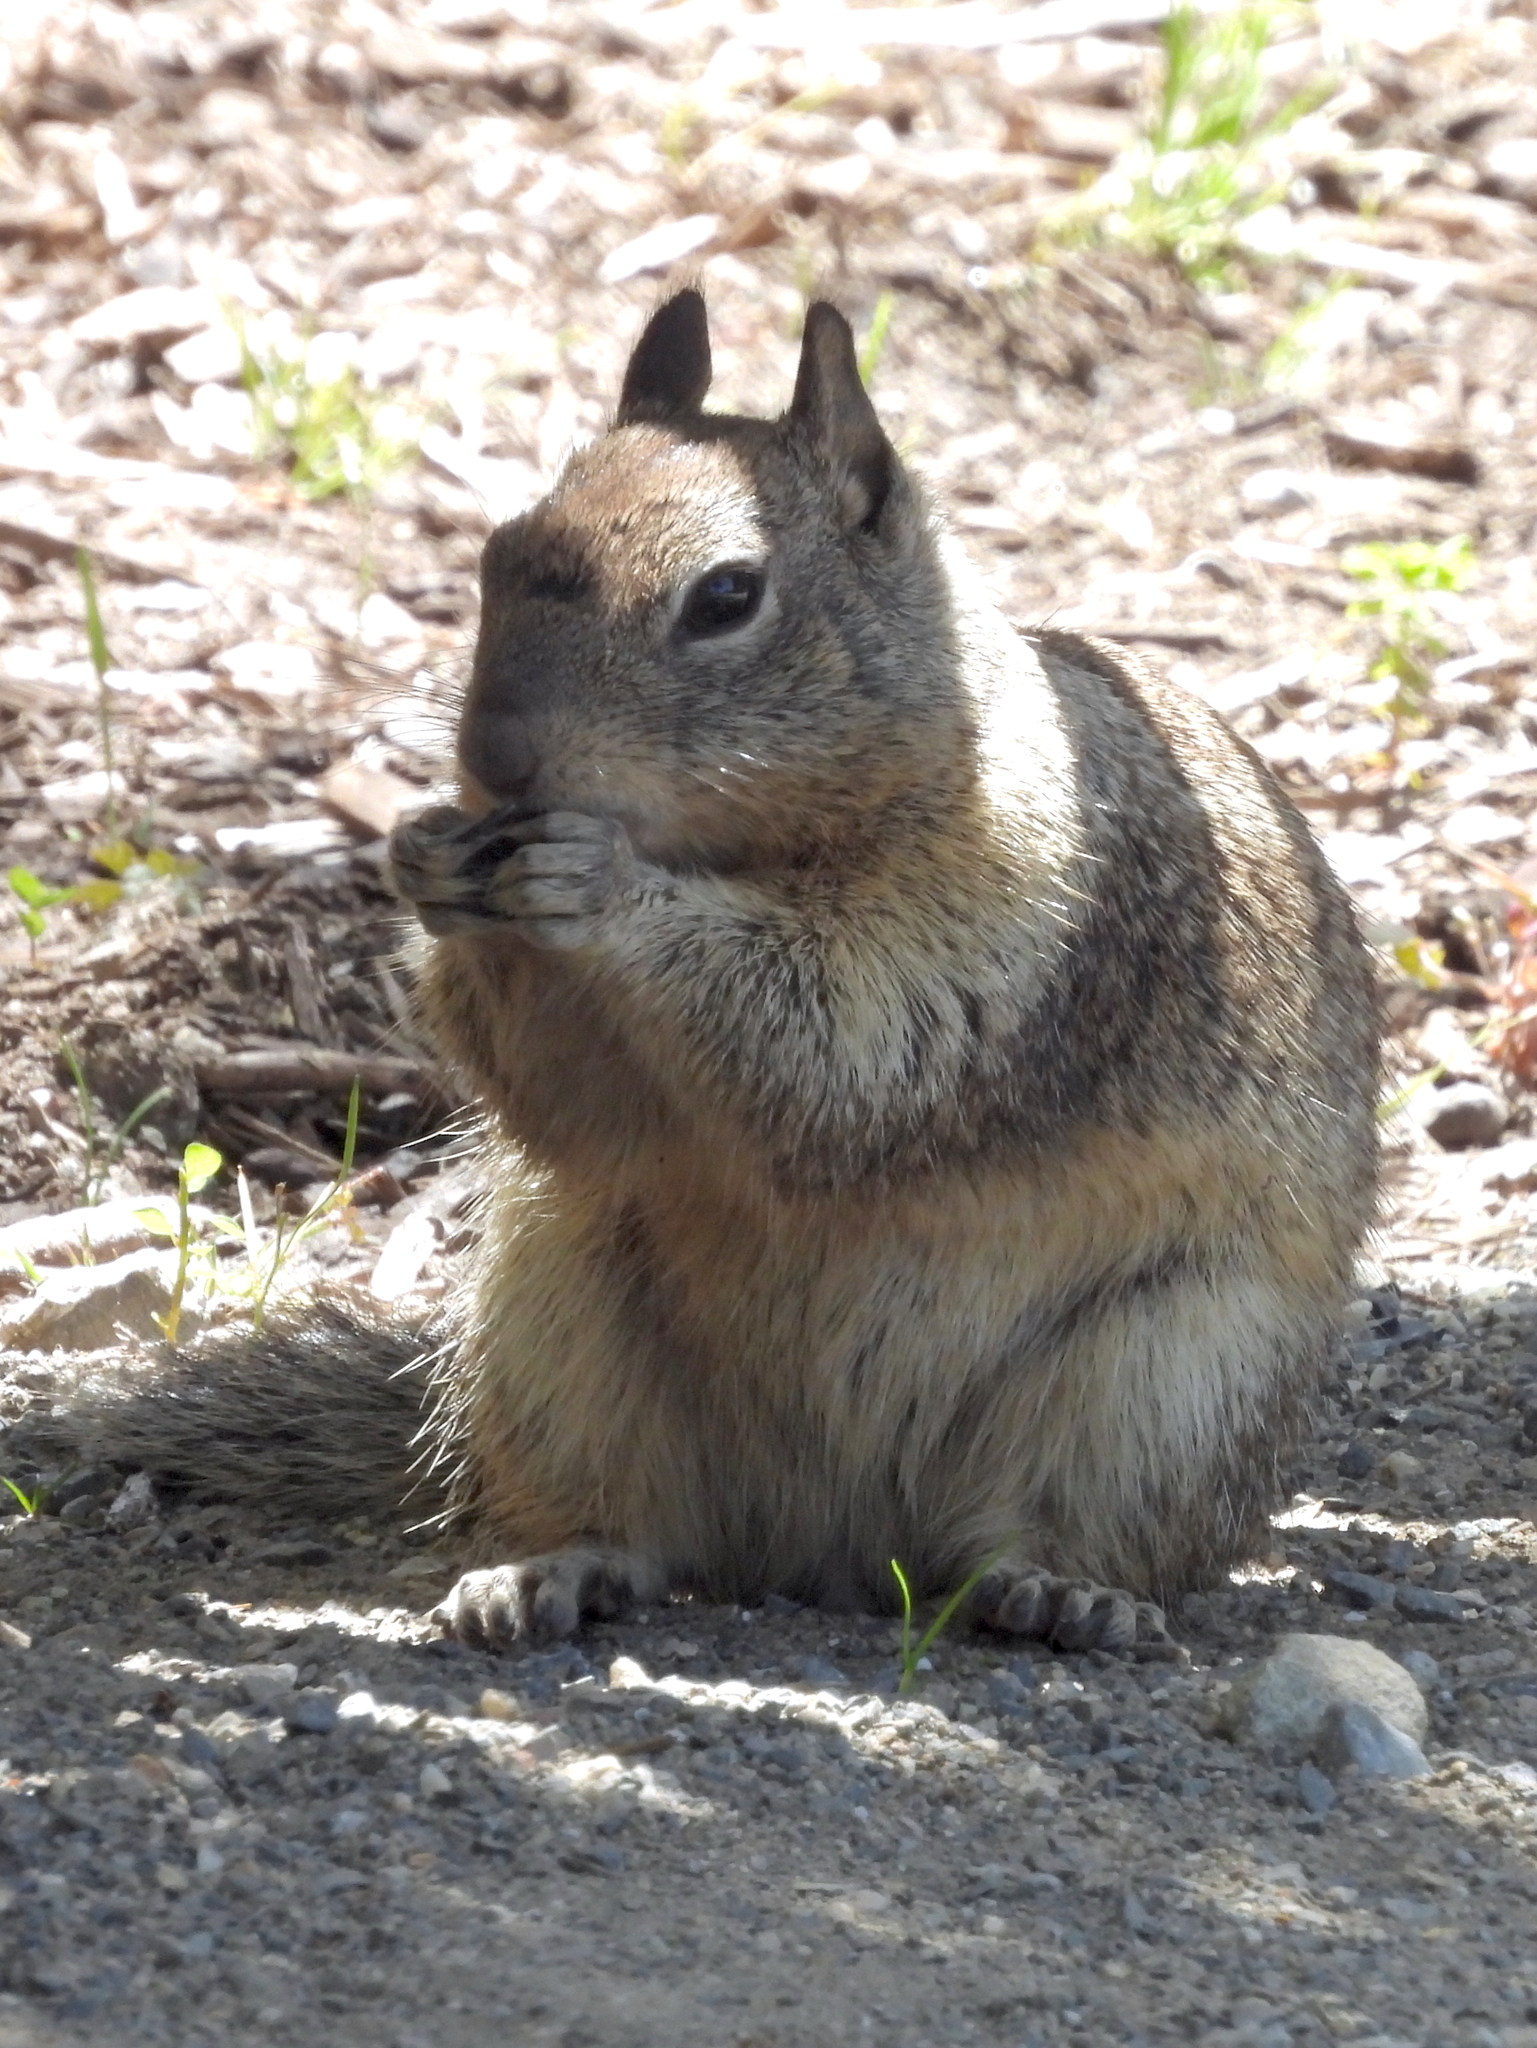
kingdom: Animalia
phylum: Chordata
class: Mammalia
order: Rodentia
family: Sciuridae
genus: Otospermophilus
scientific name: Otospermophilus beecheyi
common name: California ground squirrel
